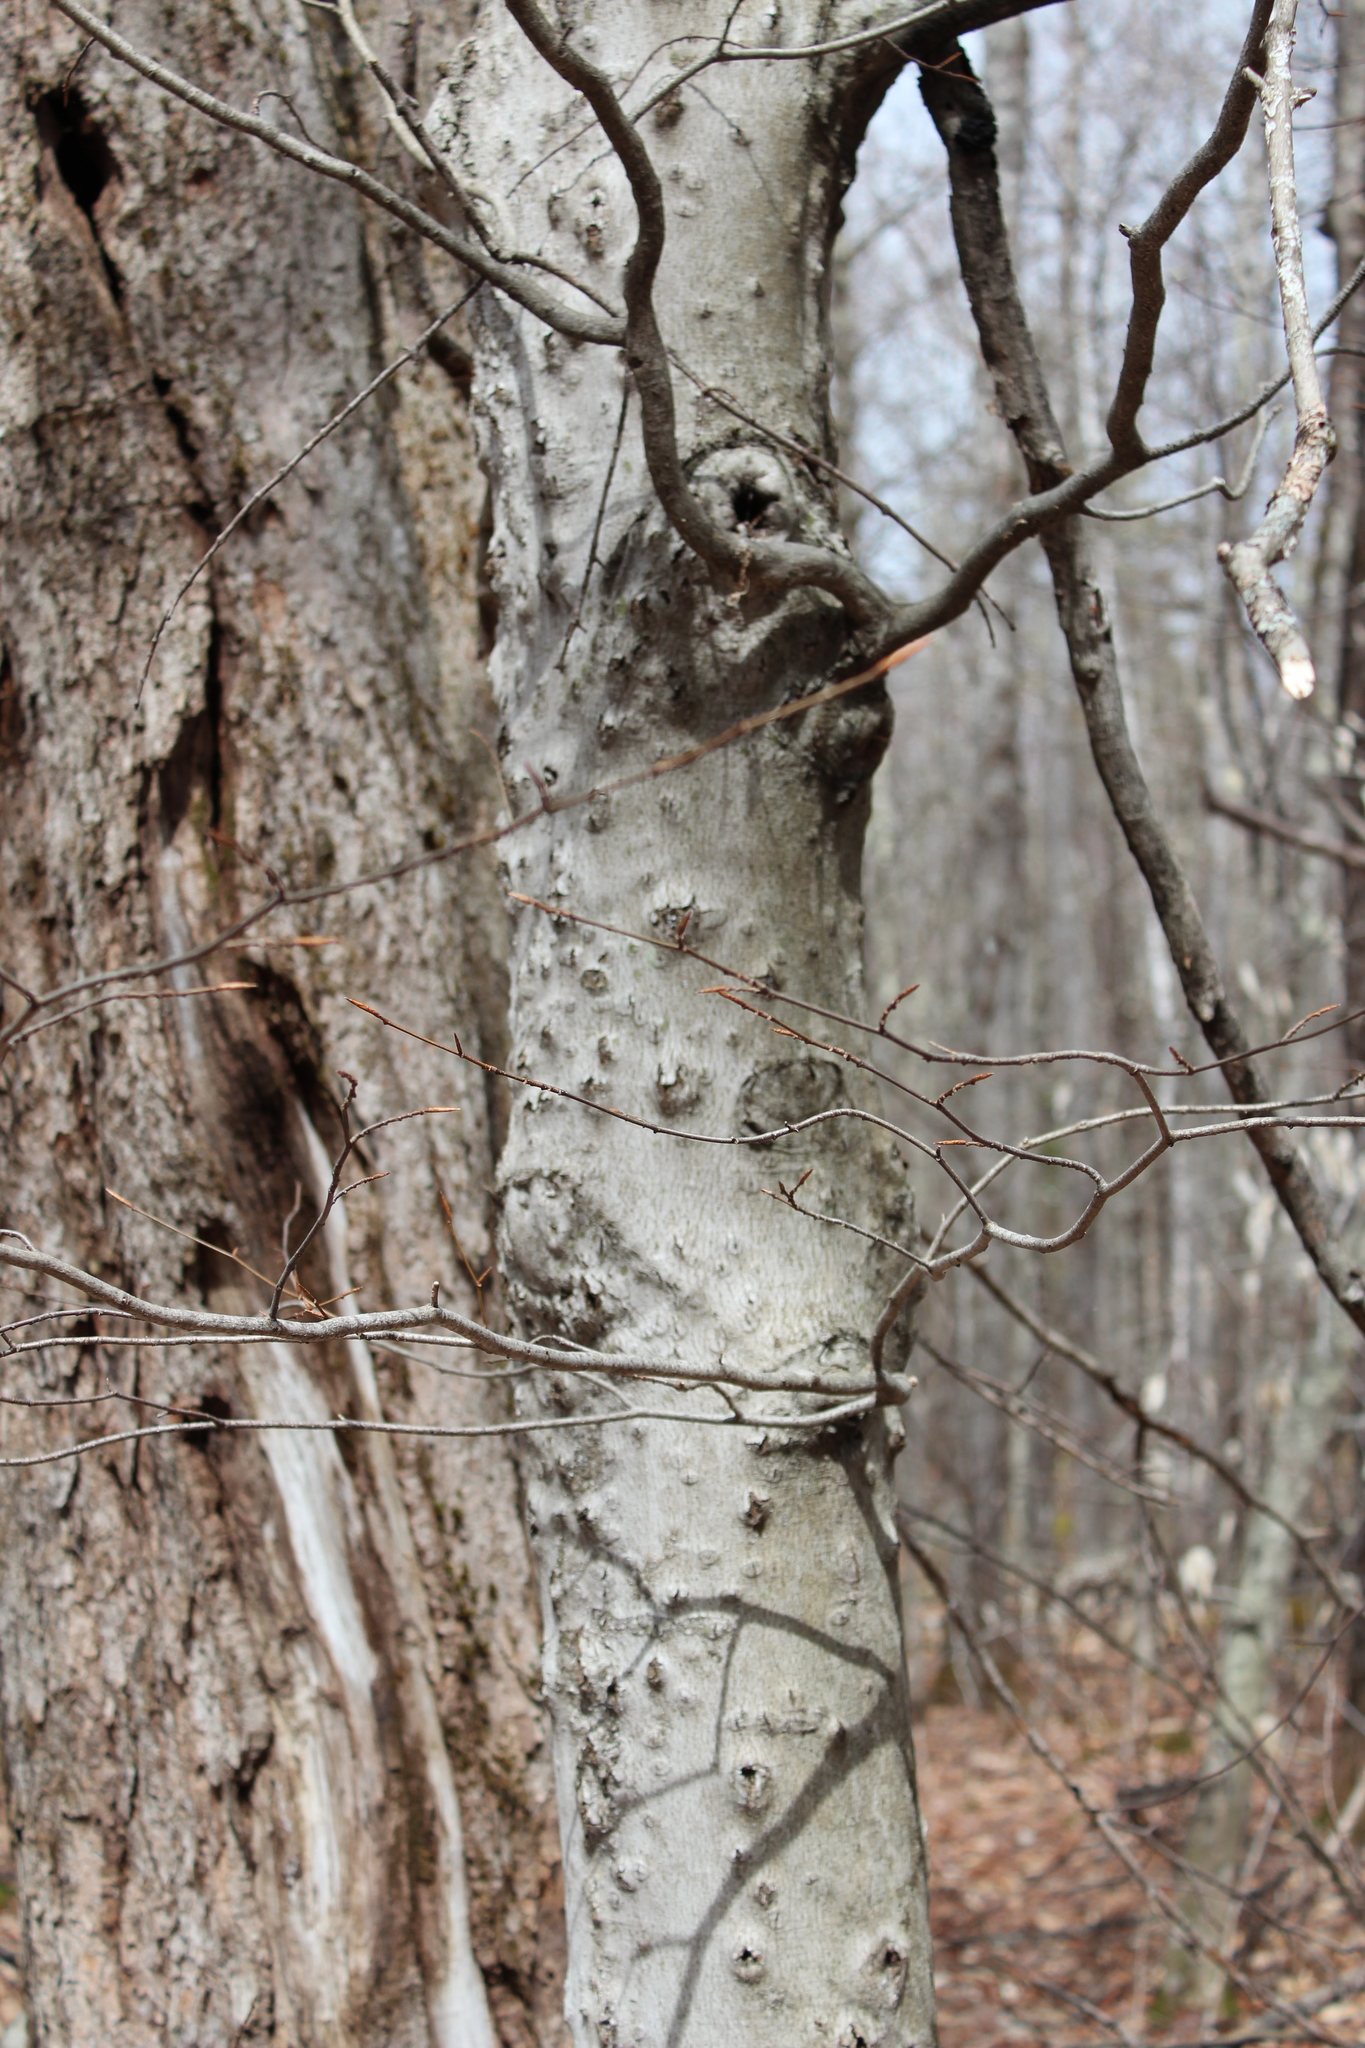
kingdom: Plantae
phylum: Tracheophyta
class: Magnoliopsida
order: Fagales
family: Fagaceae
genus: Fagus
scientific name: Fagus grandifolia
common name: American beech
